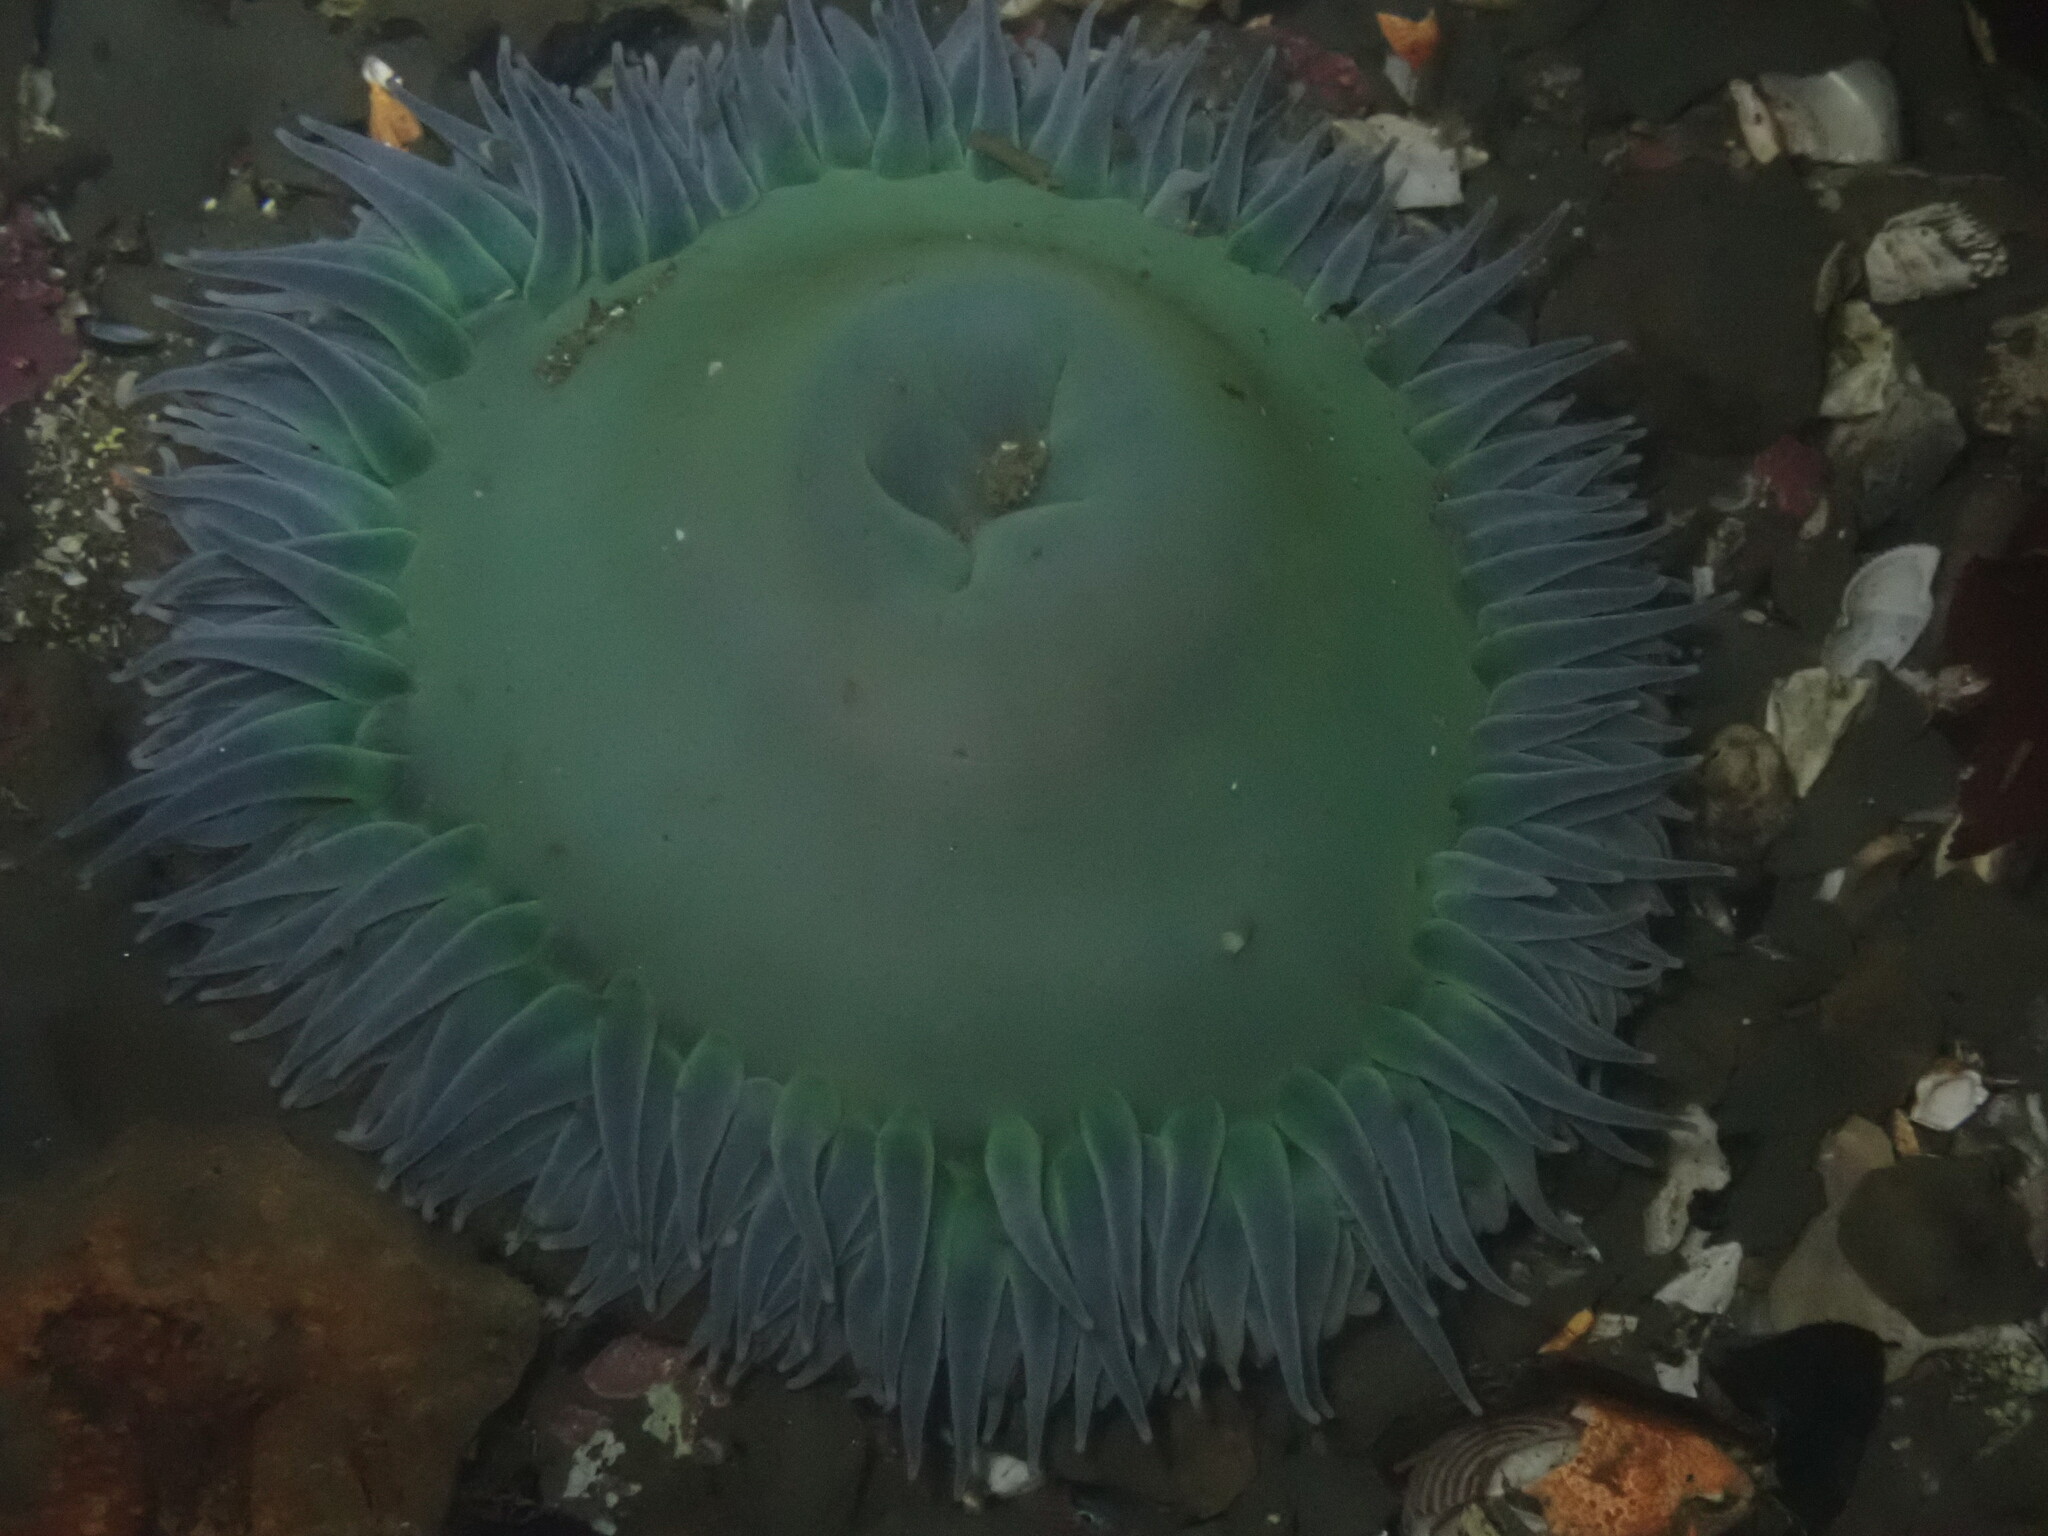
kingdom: Animalia
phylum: Cnidaria
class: Anthozoa
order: Actiniaria
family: Actiniidae
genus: Anthopleura
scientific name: Anthopleura xanthogrammica
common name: Giant green anemone
